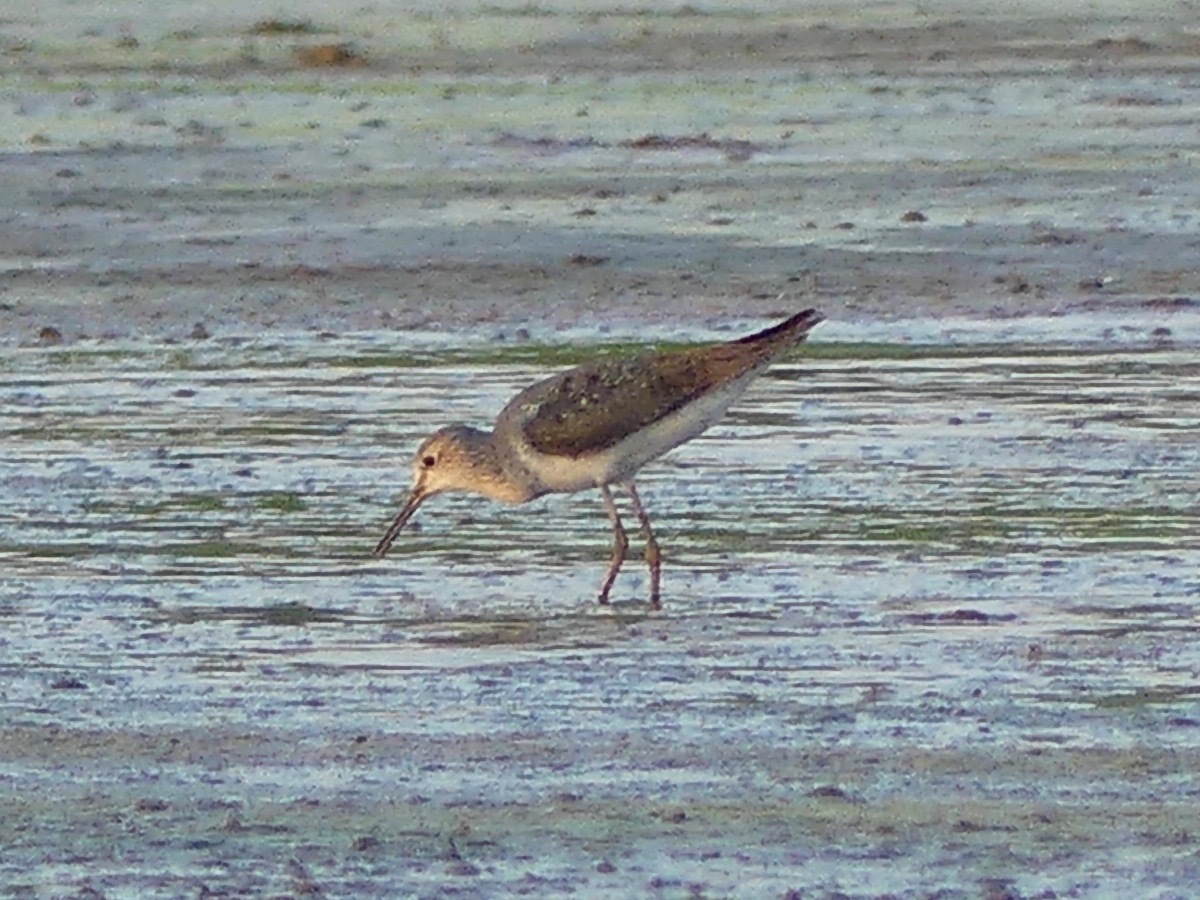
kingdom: Animalia
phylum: Chordata
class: Aves
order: Charadriiformes
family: Scolopacidae
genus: Tringa
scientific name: Tringa flavipes
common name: Lesser yellowlegs
